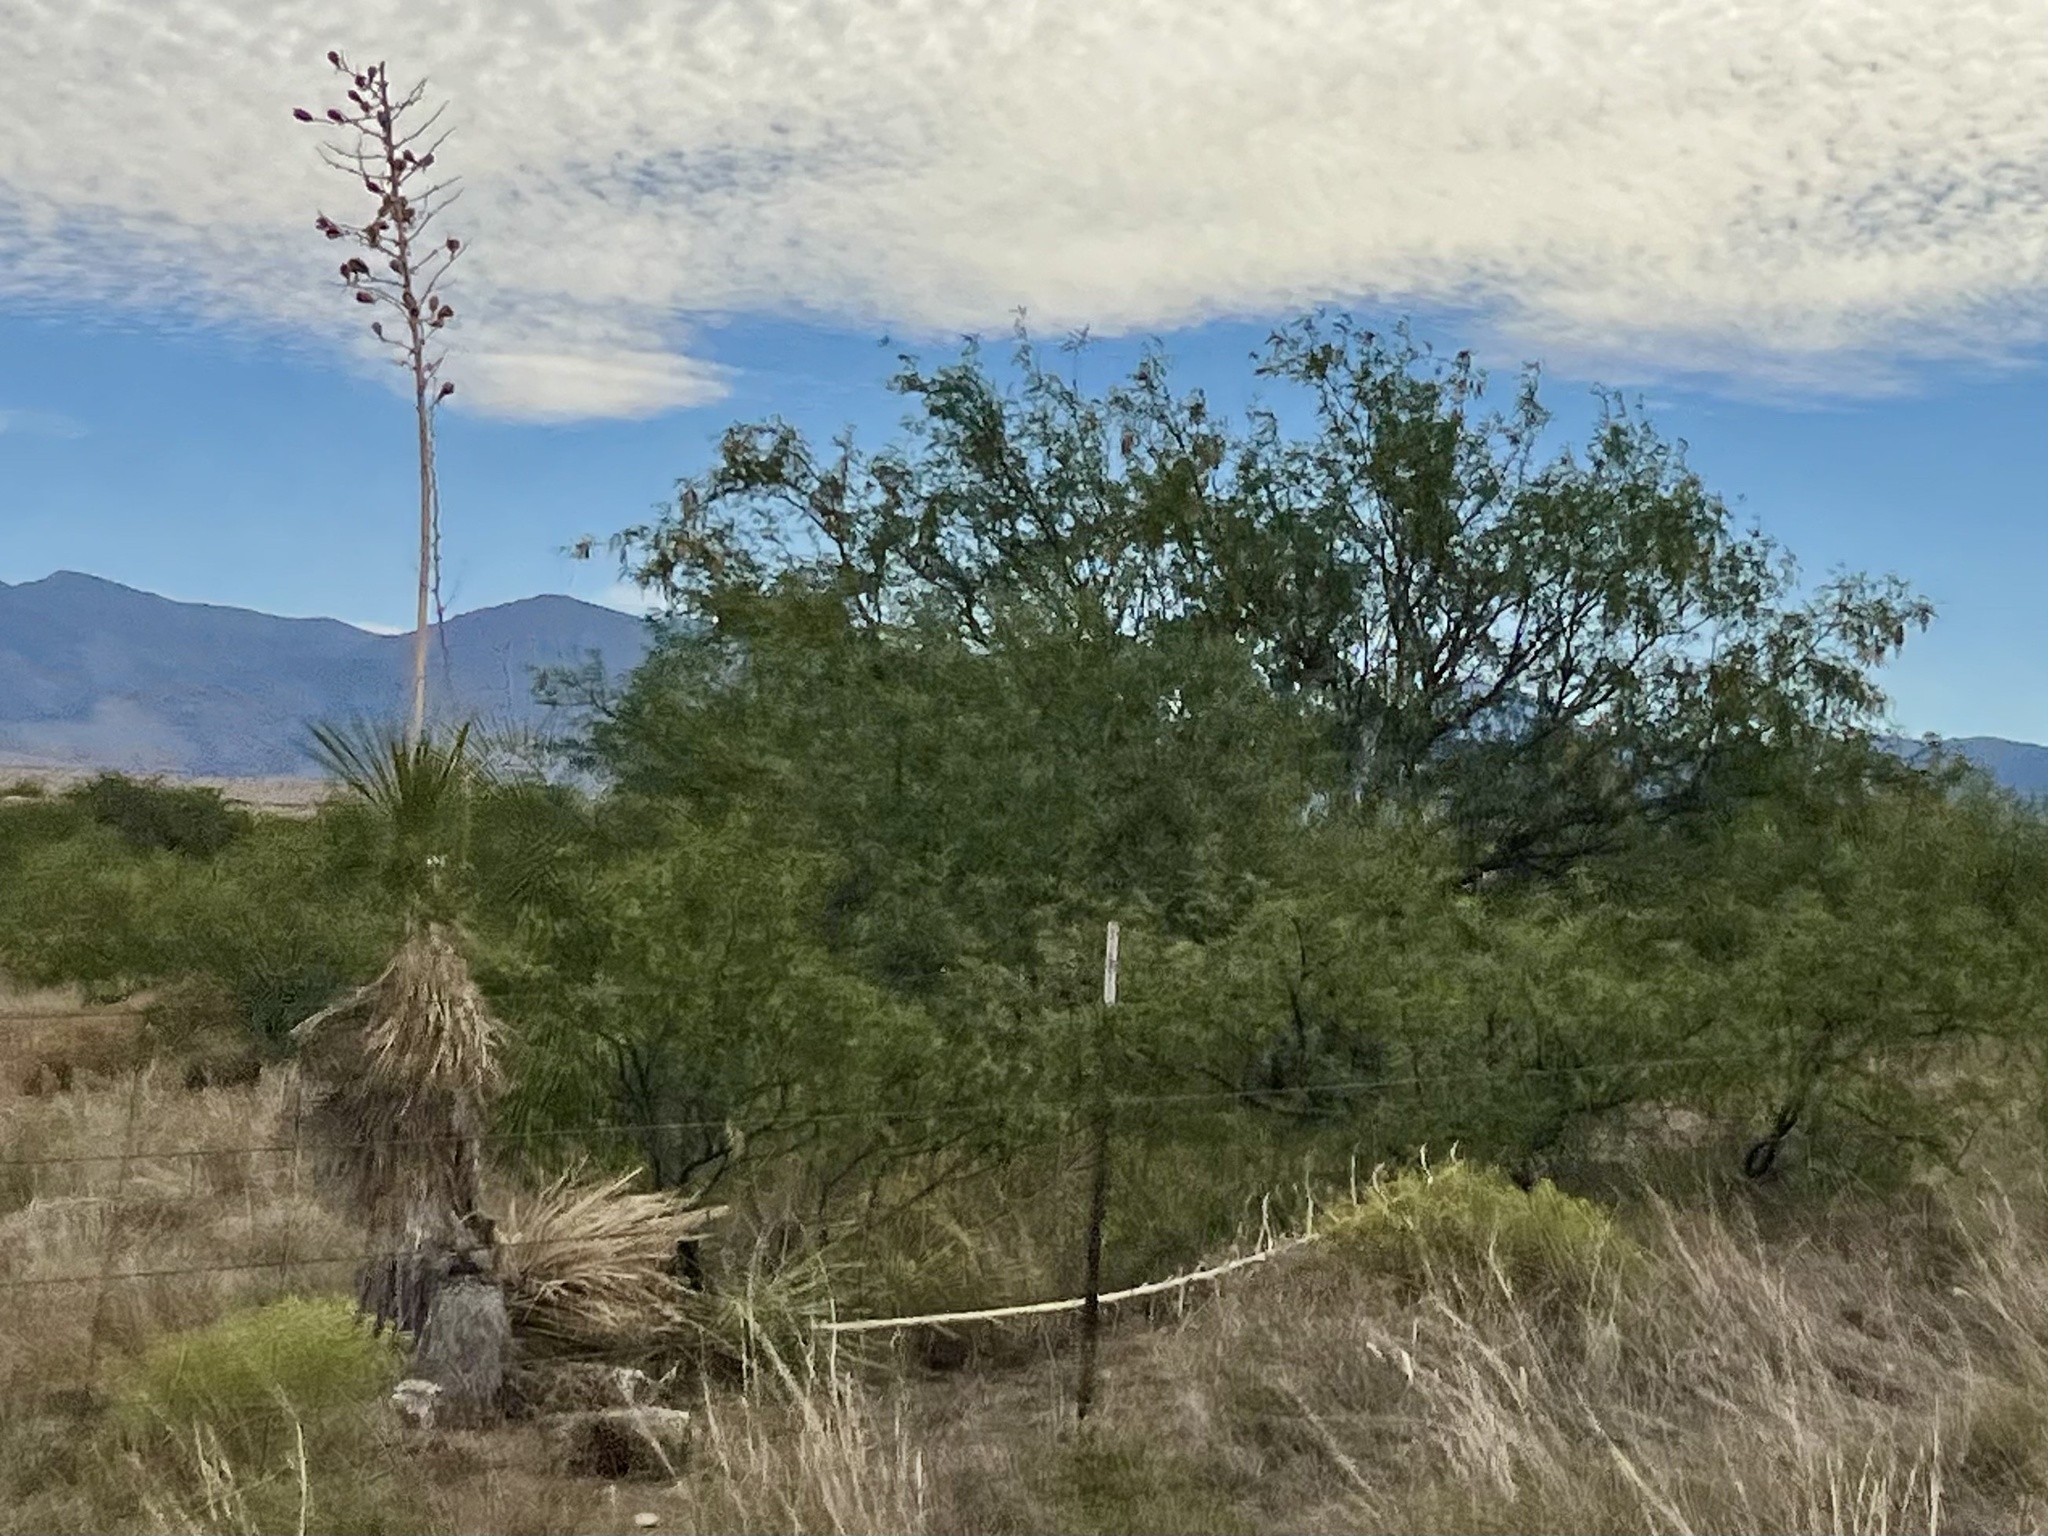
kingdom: Plantae
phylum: Tracheophyta
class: Liliopsida
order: Asparagales
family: Asparagaceae
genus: Yucca
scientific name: Yucca elata
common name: Palmella
